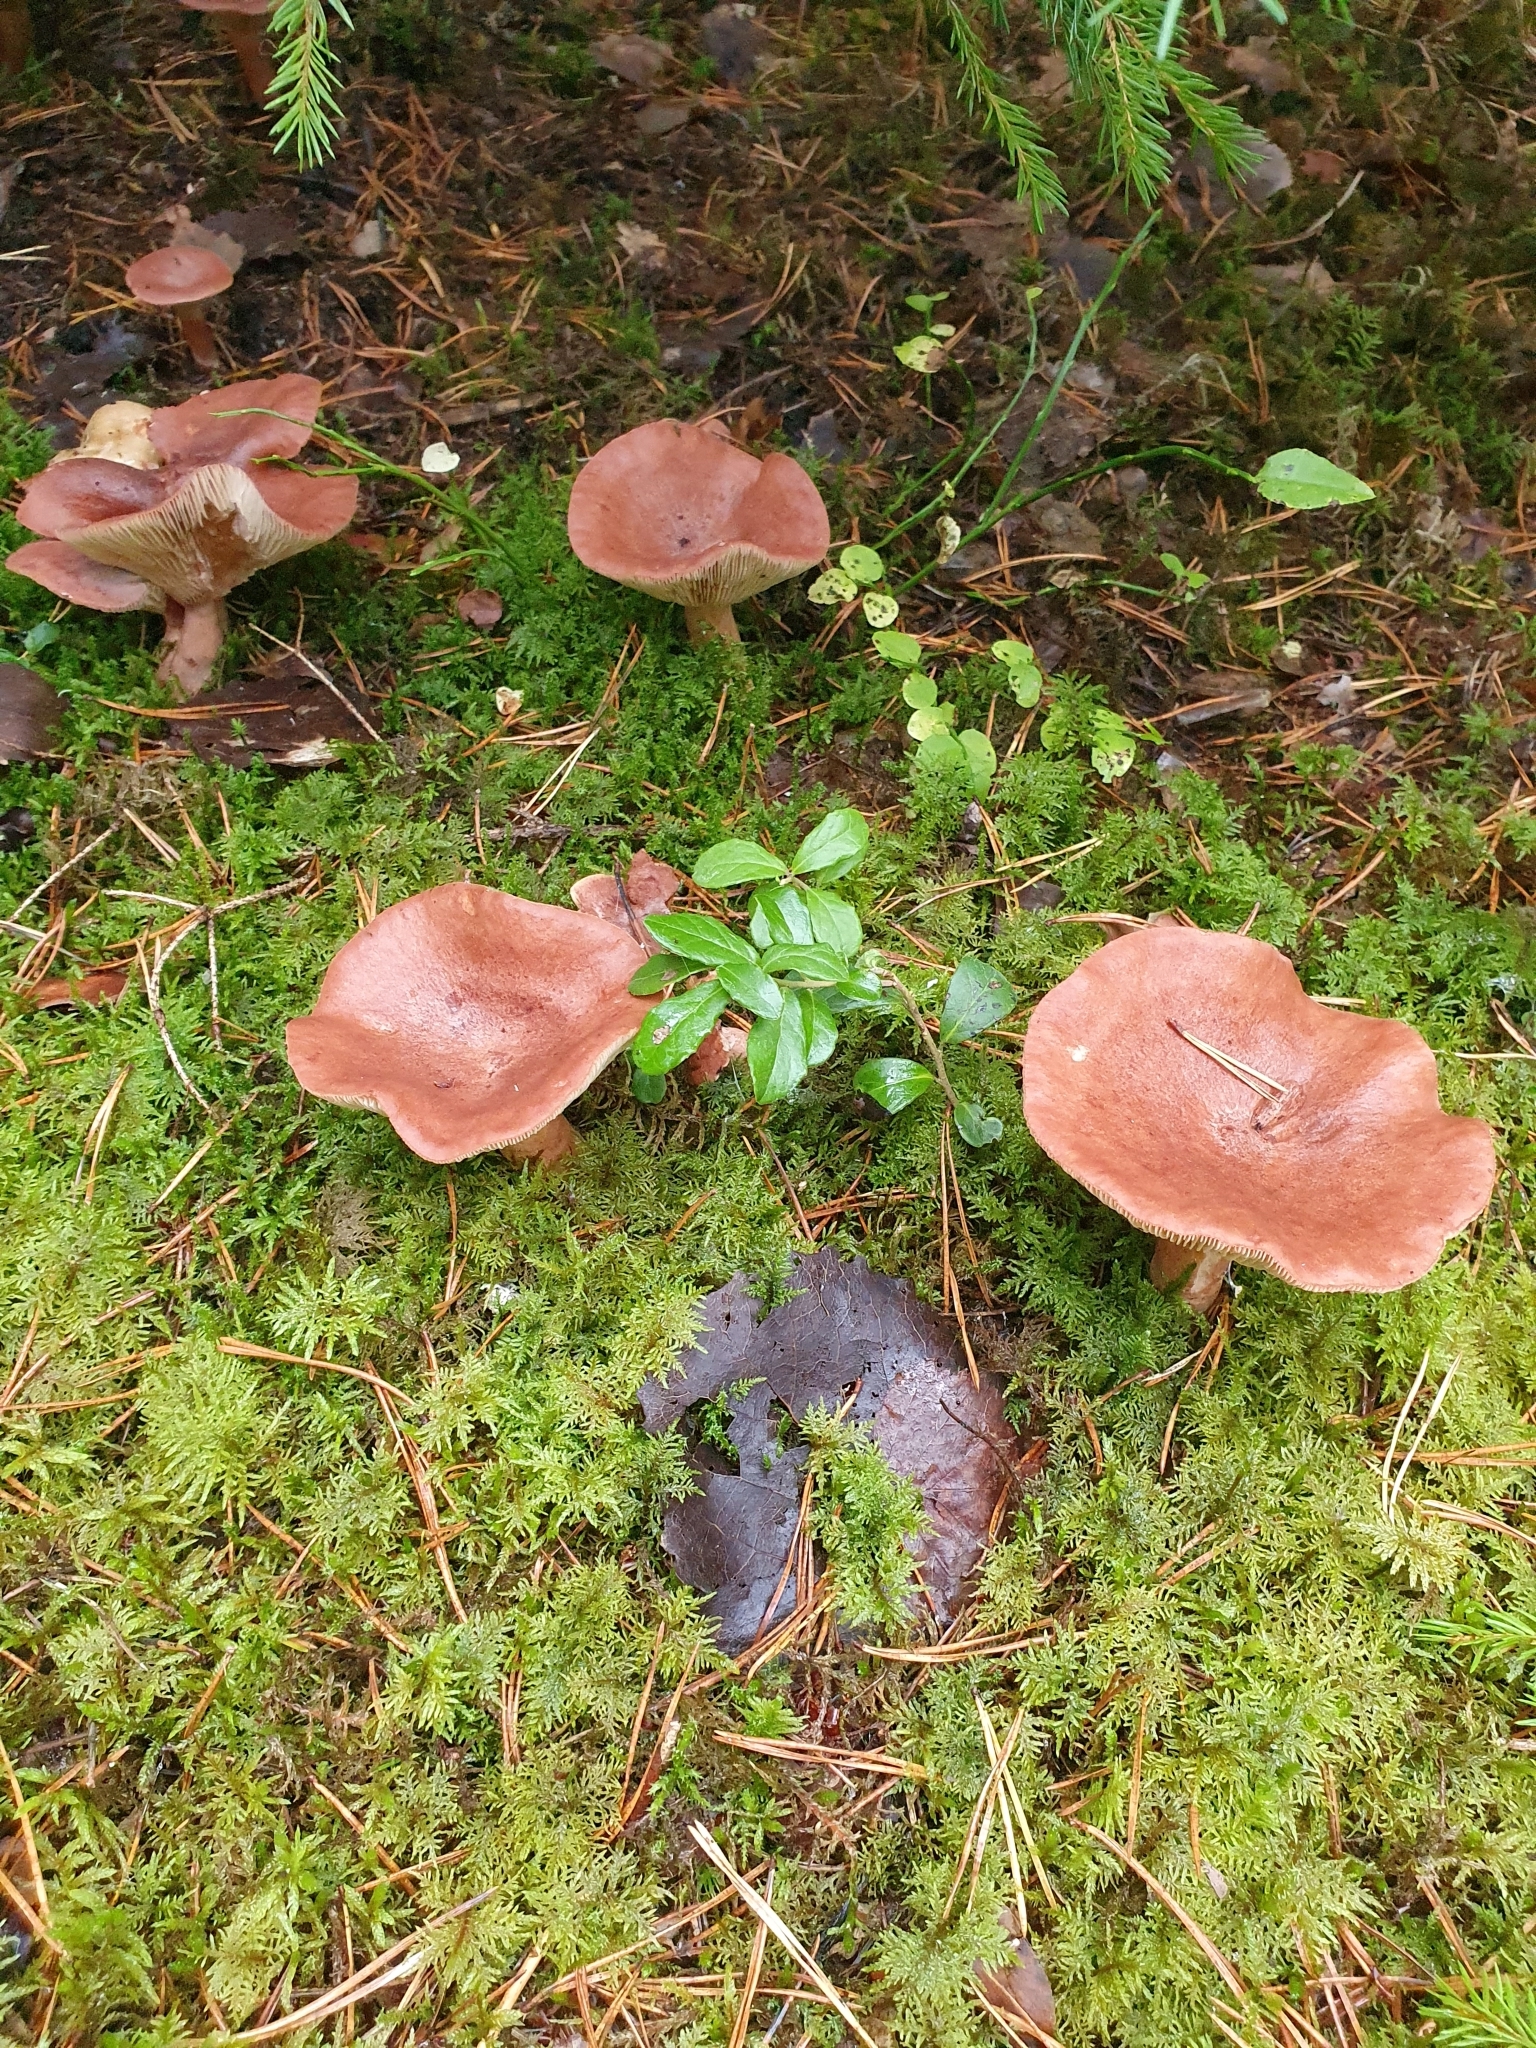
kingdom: Fungi
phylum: Basidiomycota
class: Agaricomycetes
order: Russulales
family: Russulaceae
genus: Lactarius
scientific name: Lactarius rufus
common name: Rufous milk-cap
